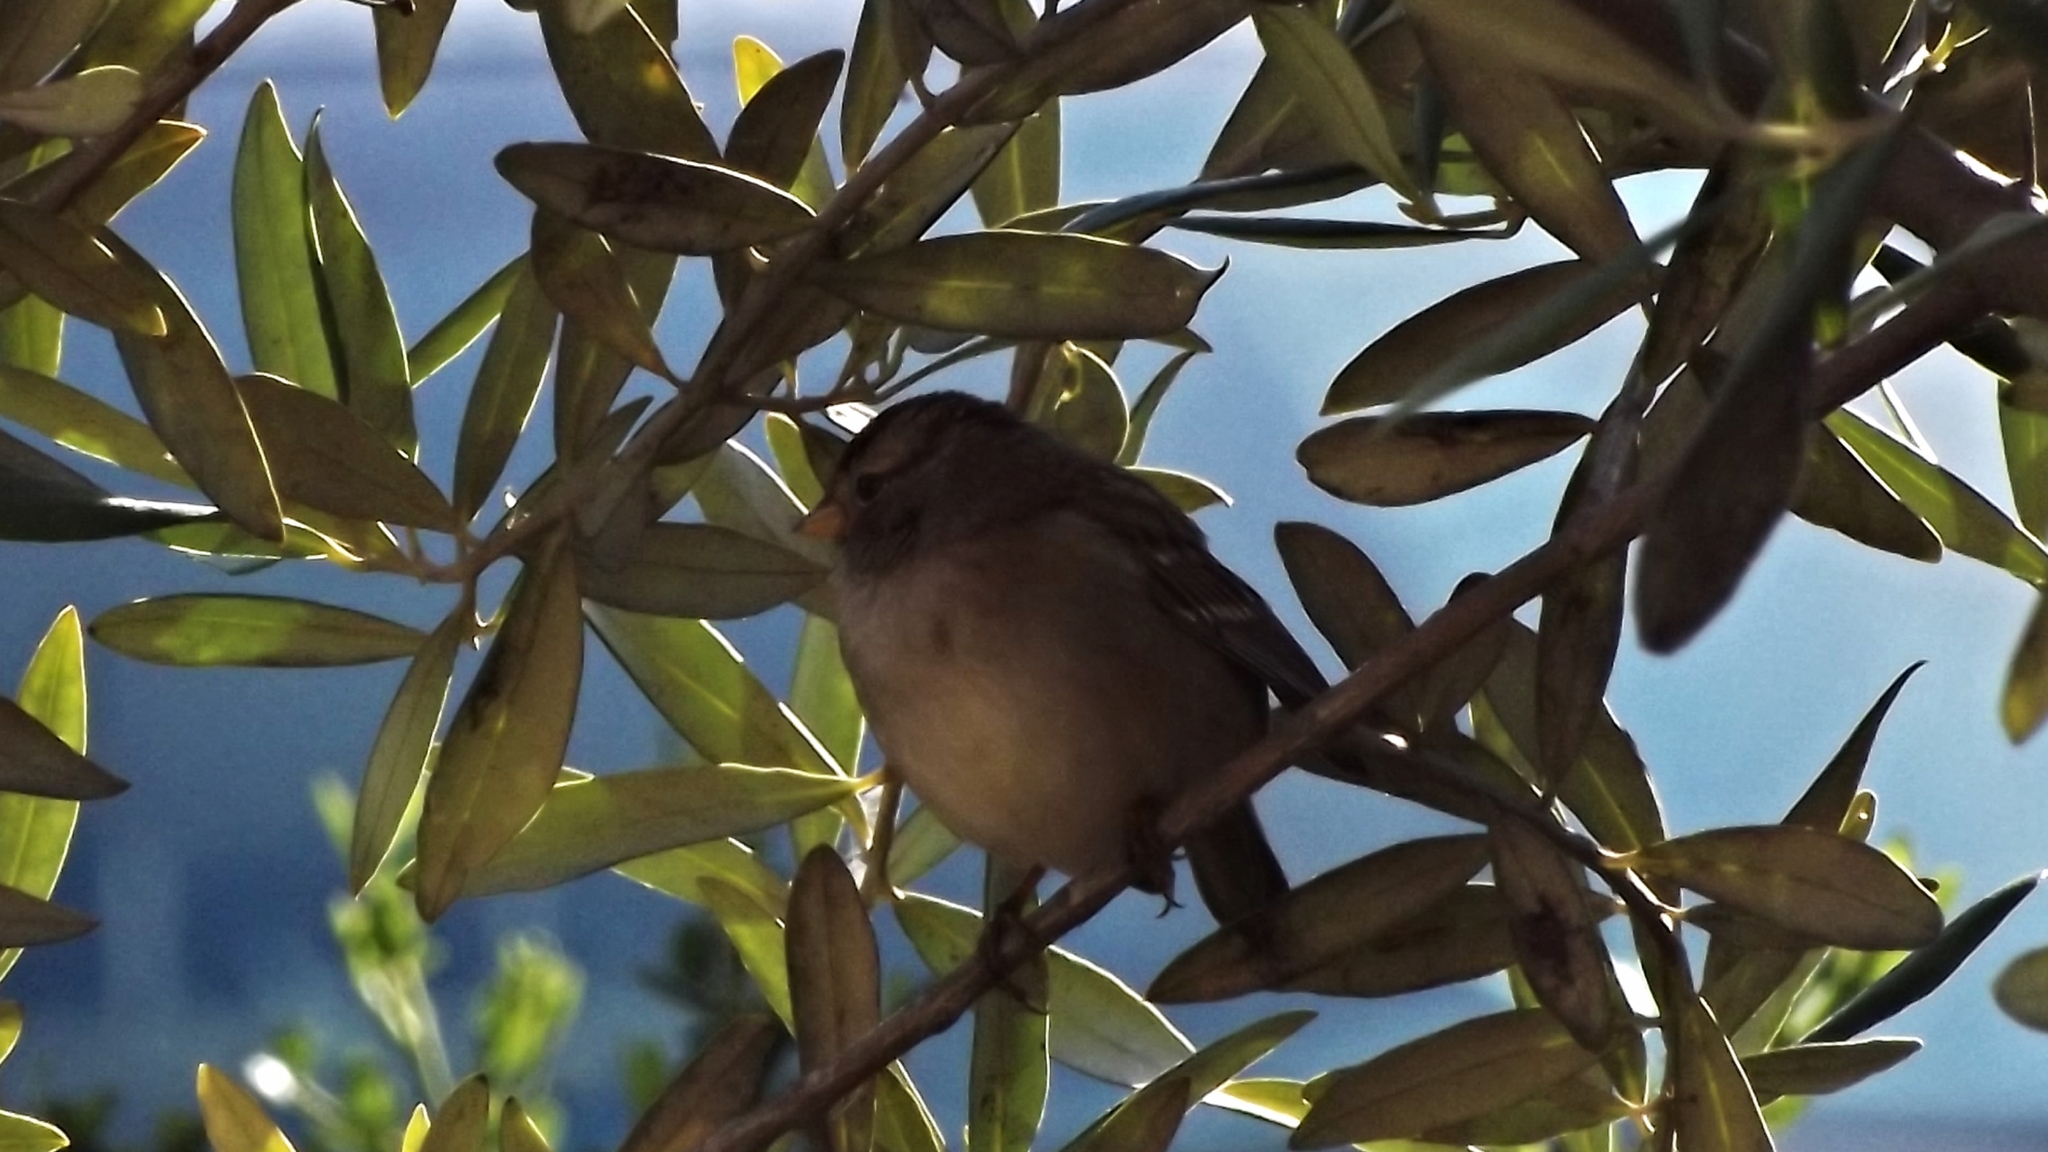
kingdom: Animalia
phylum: Chordata
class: Aves
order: Passeriformes
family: Passerellidae
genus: Zonotrichia
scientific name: Zonotrichia leucophrys
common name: White-crowned sparrow
